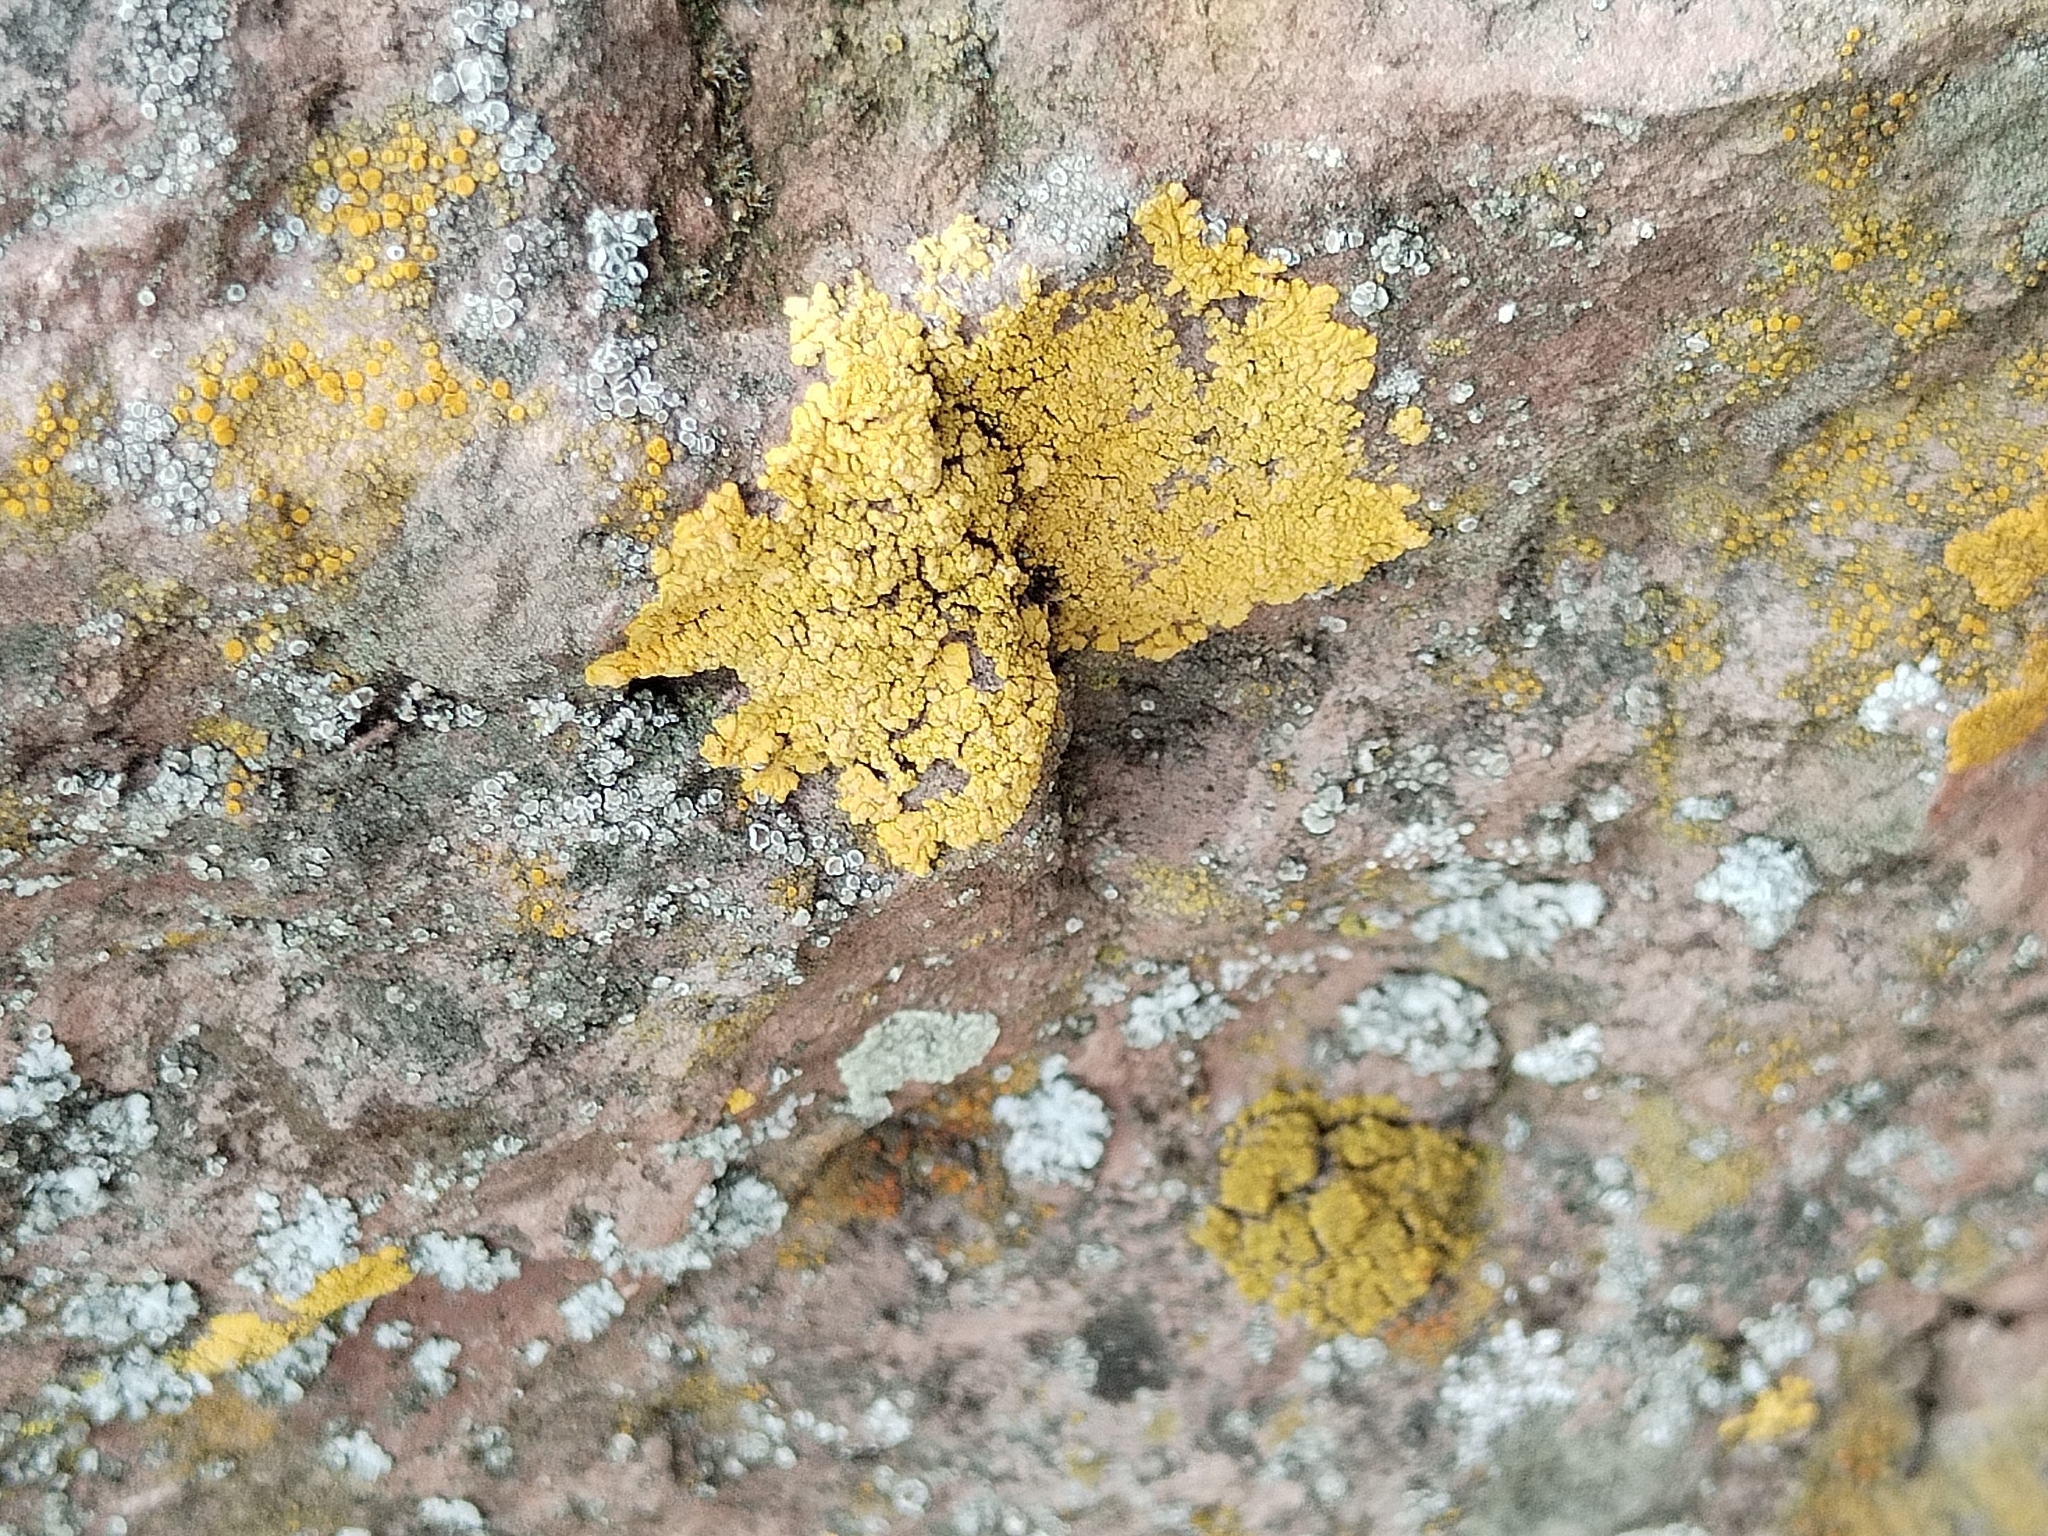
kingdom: Fungi
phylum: Ascomycota
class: Lecanoromycetes
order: Acarosporales
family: Acarosporaceae
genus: Acarospora
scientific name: Acarospora socialis
